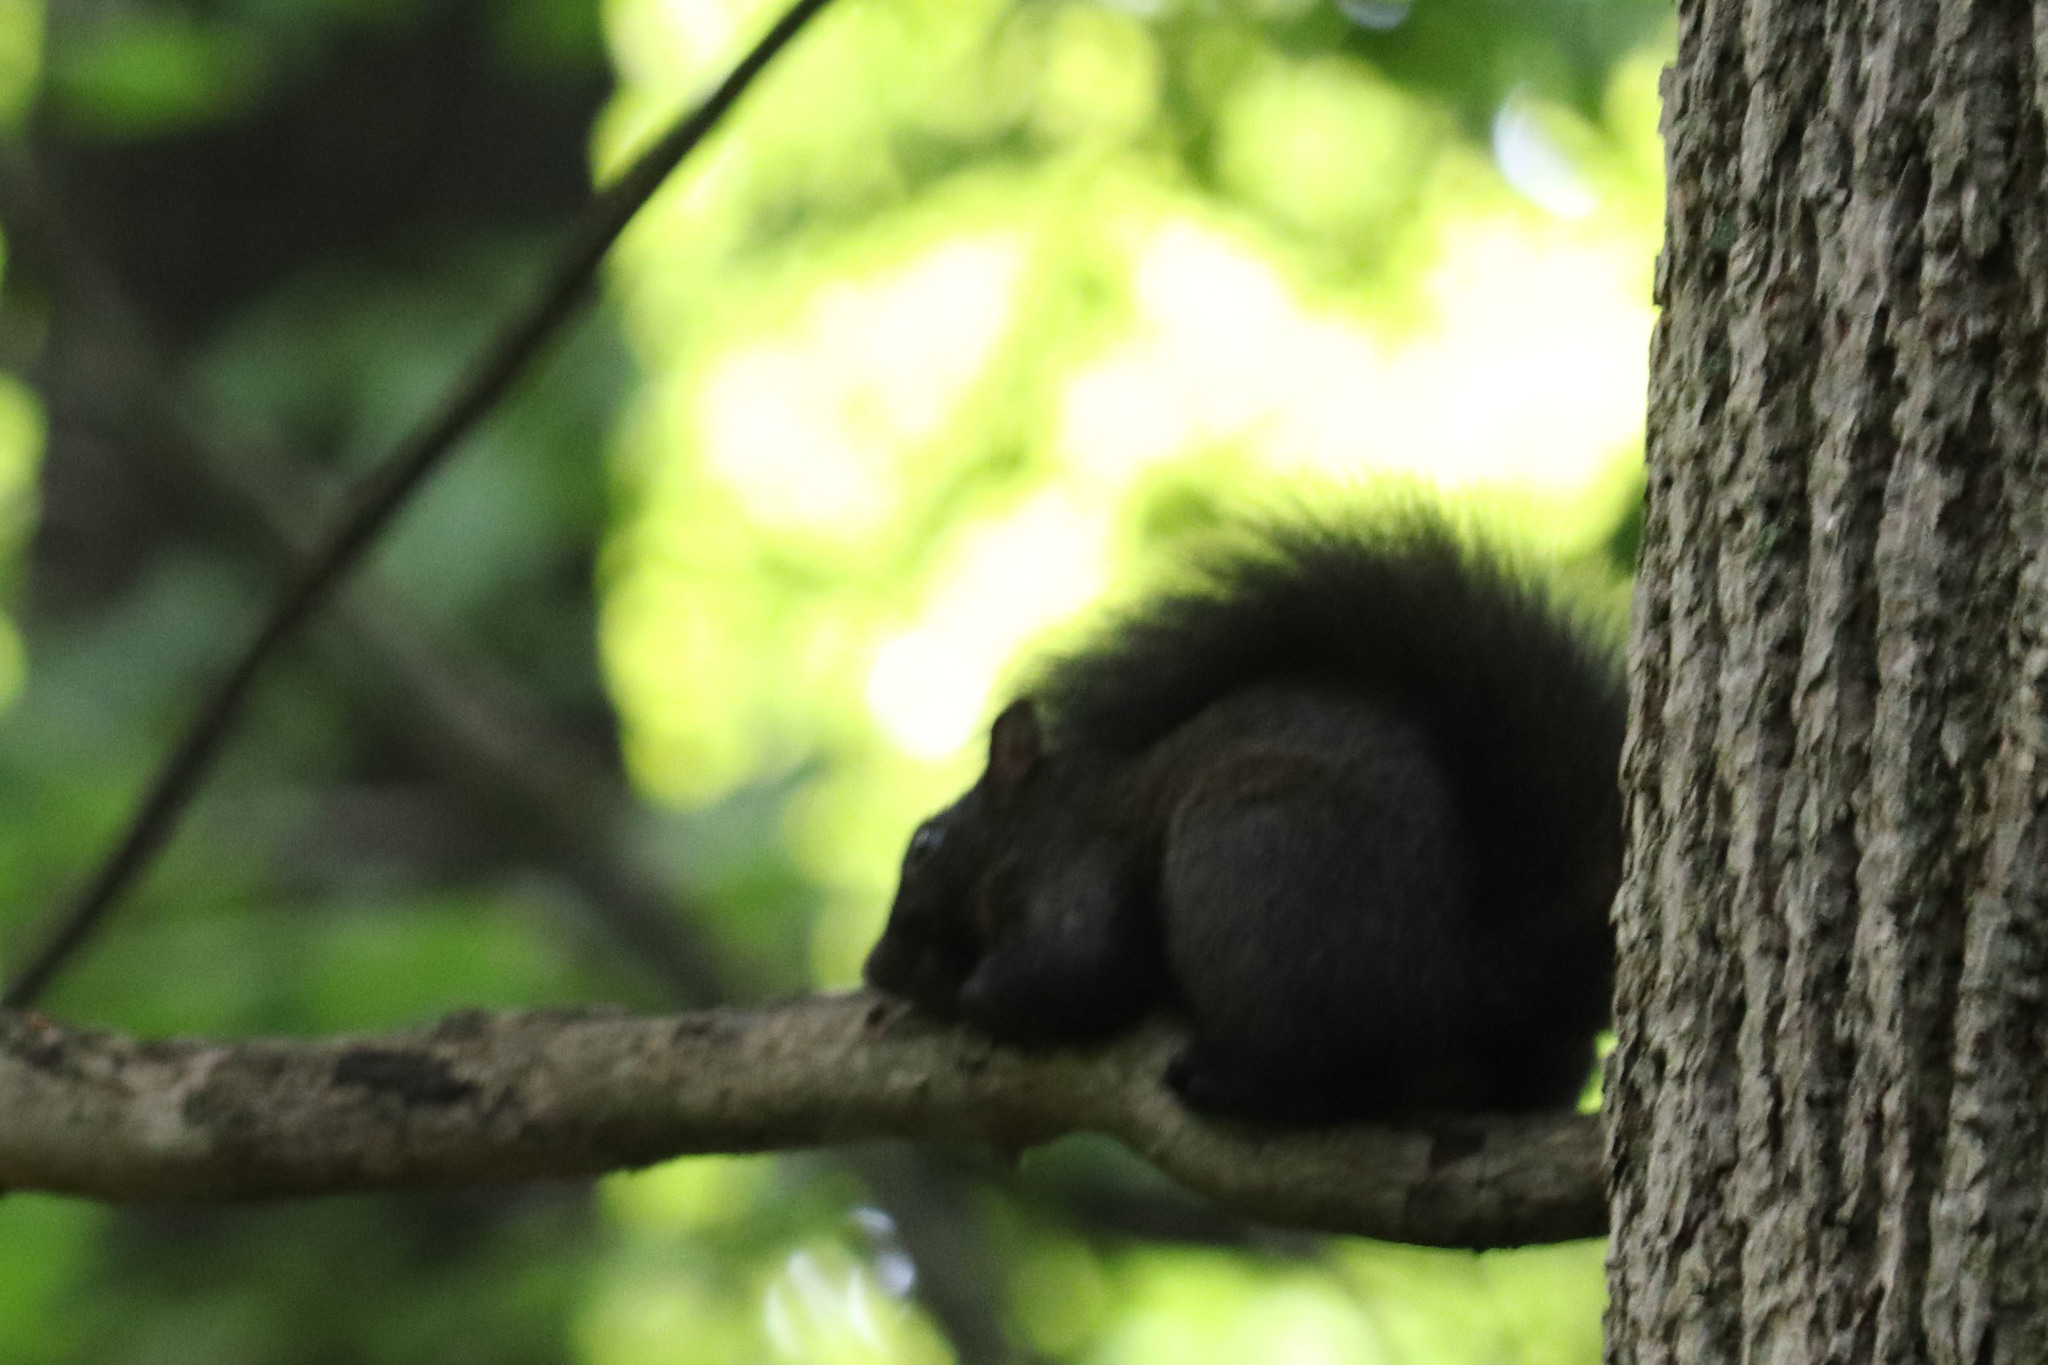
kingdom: Animalia
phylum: Chordata
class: Mammalia
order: Rodentia
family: Sciuridae
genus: Sciurus
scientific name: Sciurus carolinensis
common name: Eastern gray squirrel
